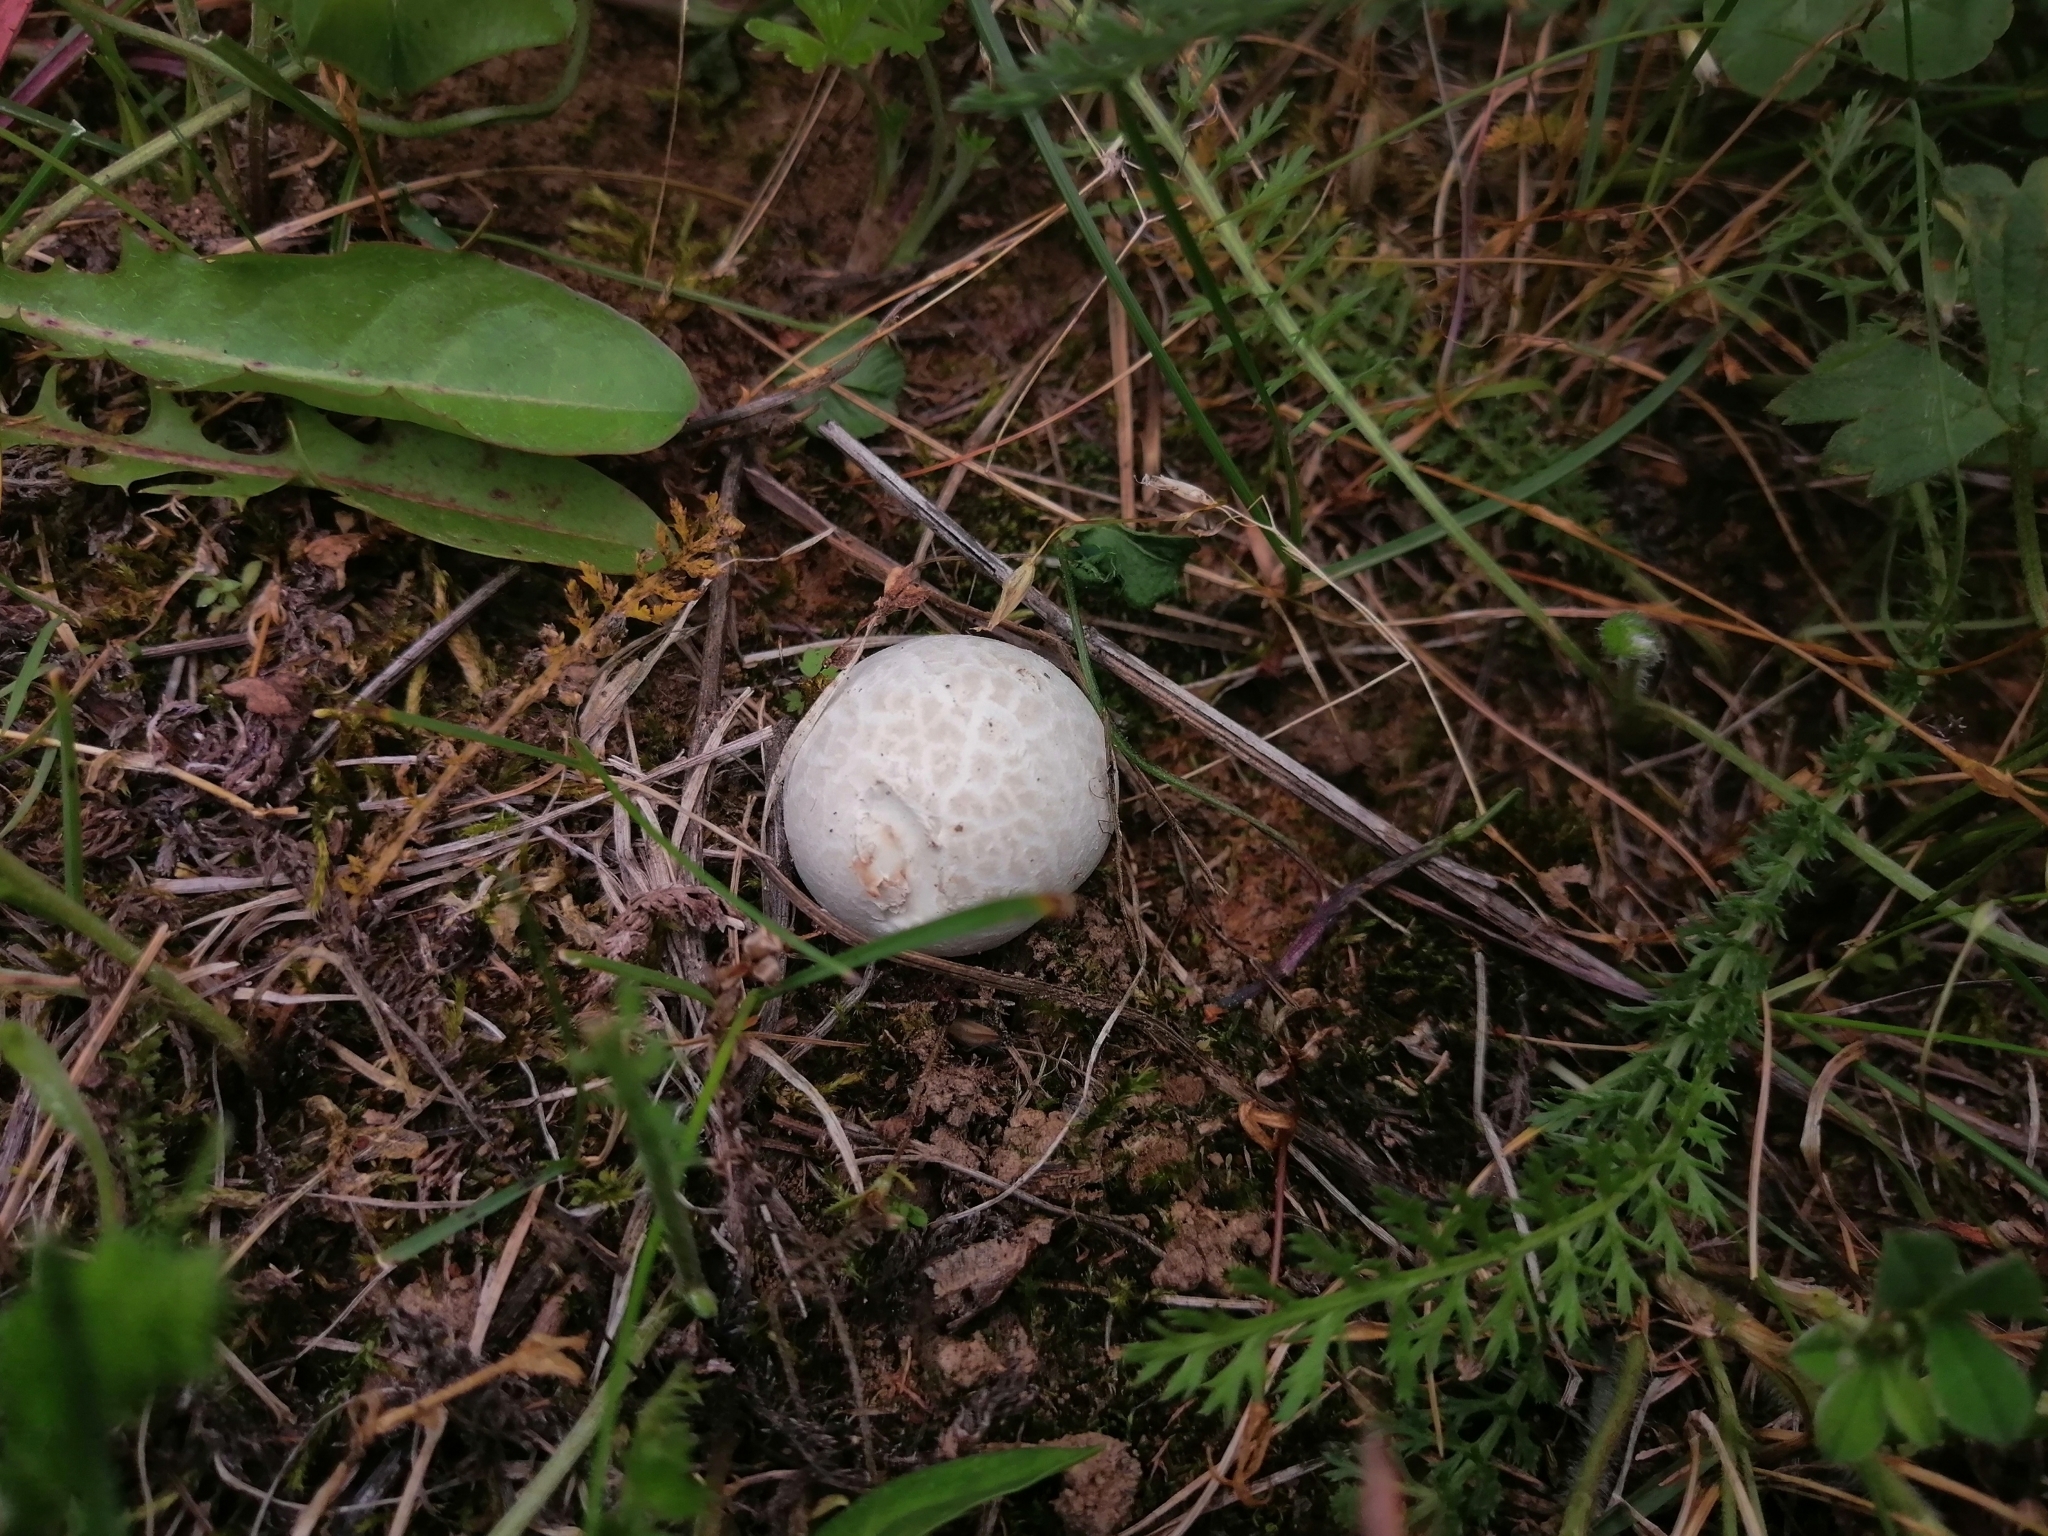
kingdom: Fungi
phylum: Basidiomycota
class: Agaricomycetes
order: Agaricales
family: Lycoperdaceae
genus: Bovista
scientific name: Bovista plumbea
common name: Grey puffball
